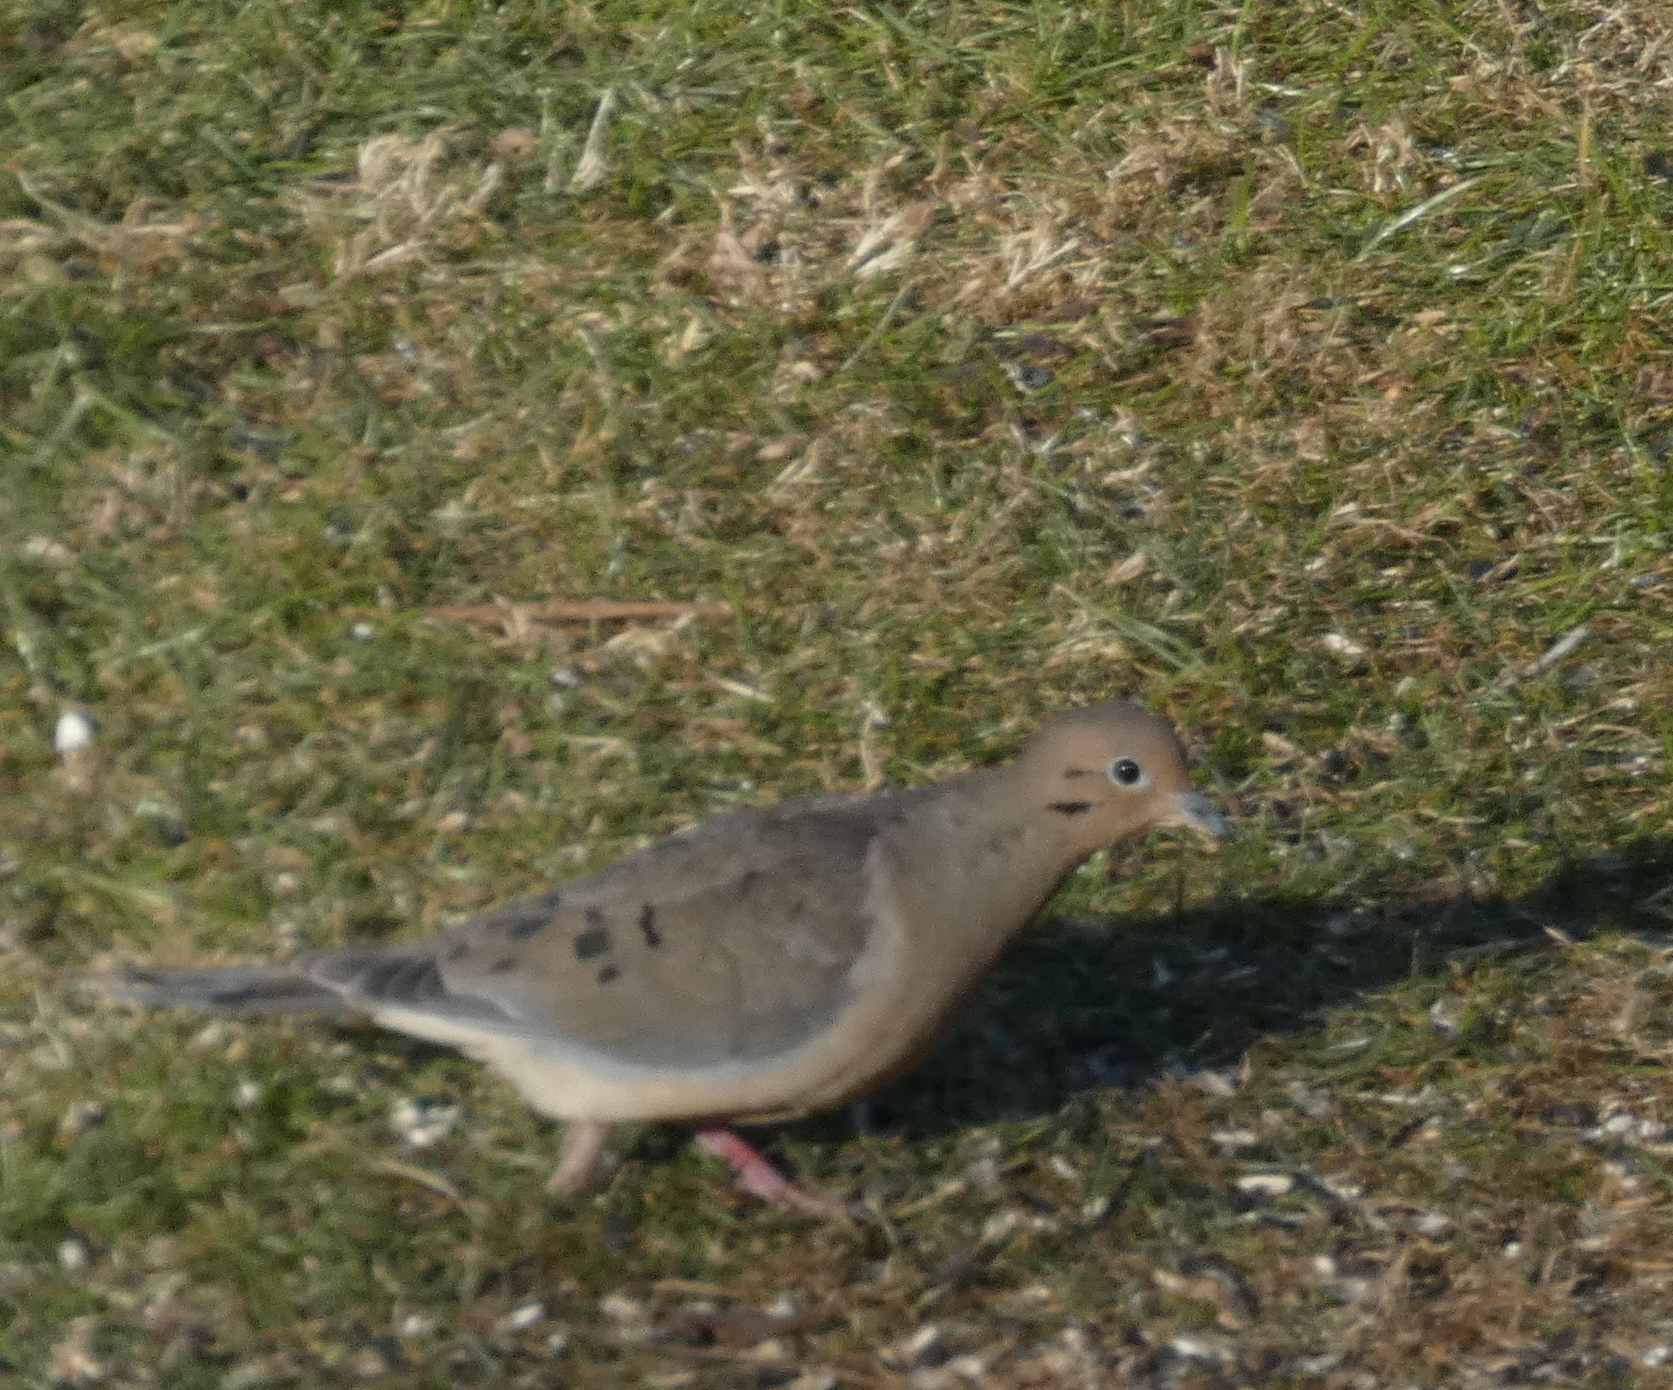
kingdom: Animalia
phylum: Chordata
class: Aves
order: Columbiformes
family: Columbidae
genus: Zenaida
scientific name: Zenaida macroura
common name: Mourning dove
